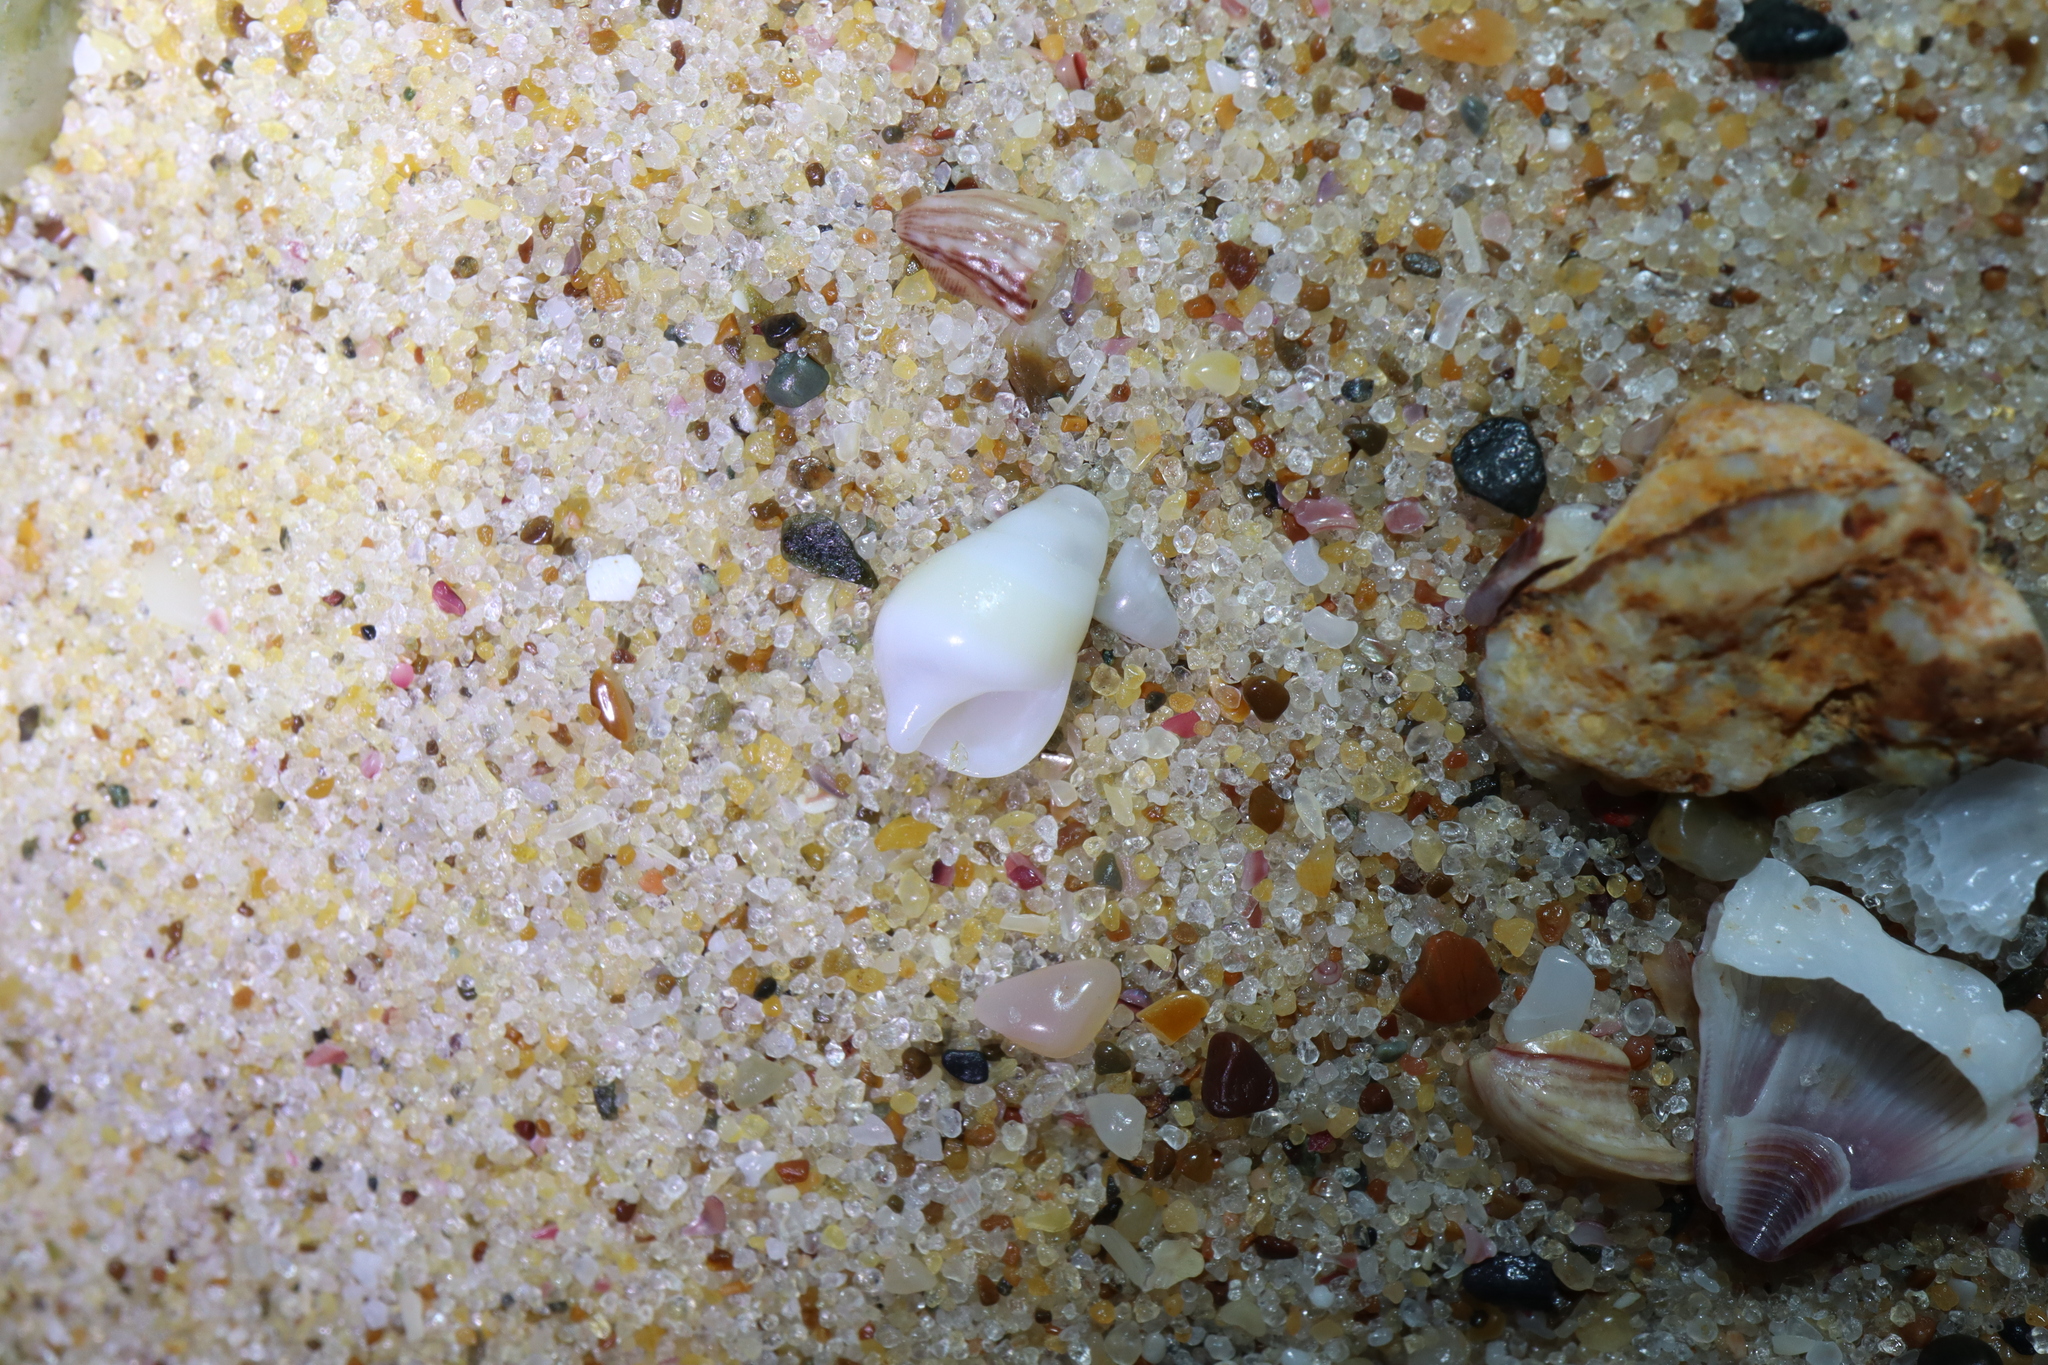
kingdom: Animalia
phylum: Mollusca
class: Gastropoda
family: Planaxidae
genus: Hinea
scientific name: Hinea brasiliana
